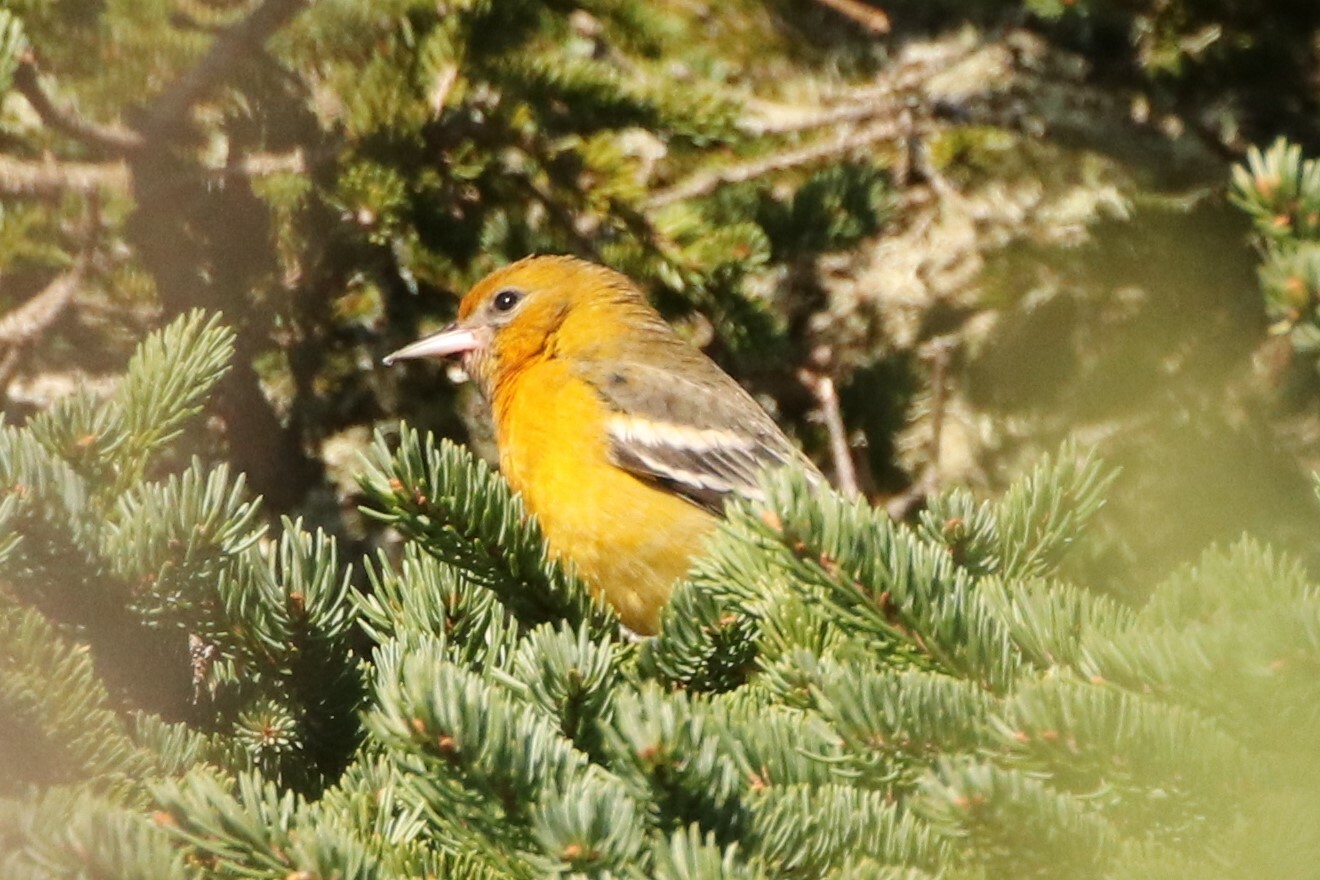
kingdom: Animalia
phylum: Chordata
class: Aves
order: Passeriformes
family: Icteridae
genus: Icterus
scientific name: Icterus galbula
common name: Baltimore oriole
